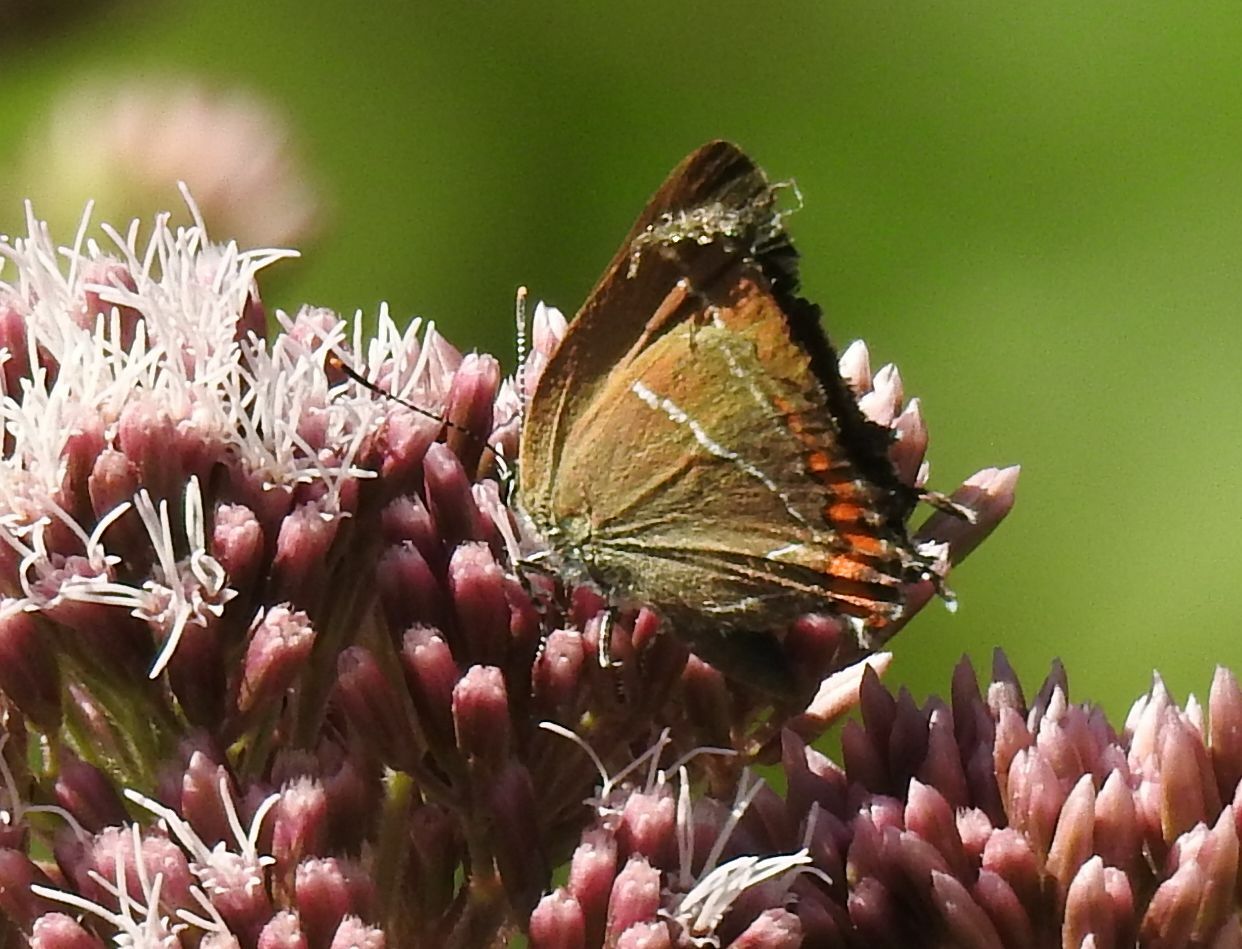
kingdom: Animalia
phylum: Arthropoda
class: Insecta
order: Lepidoptera
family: Lycaenidae
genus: Satyrium
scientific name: Satyrium w-album
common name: White-letter hairstreak
